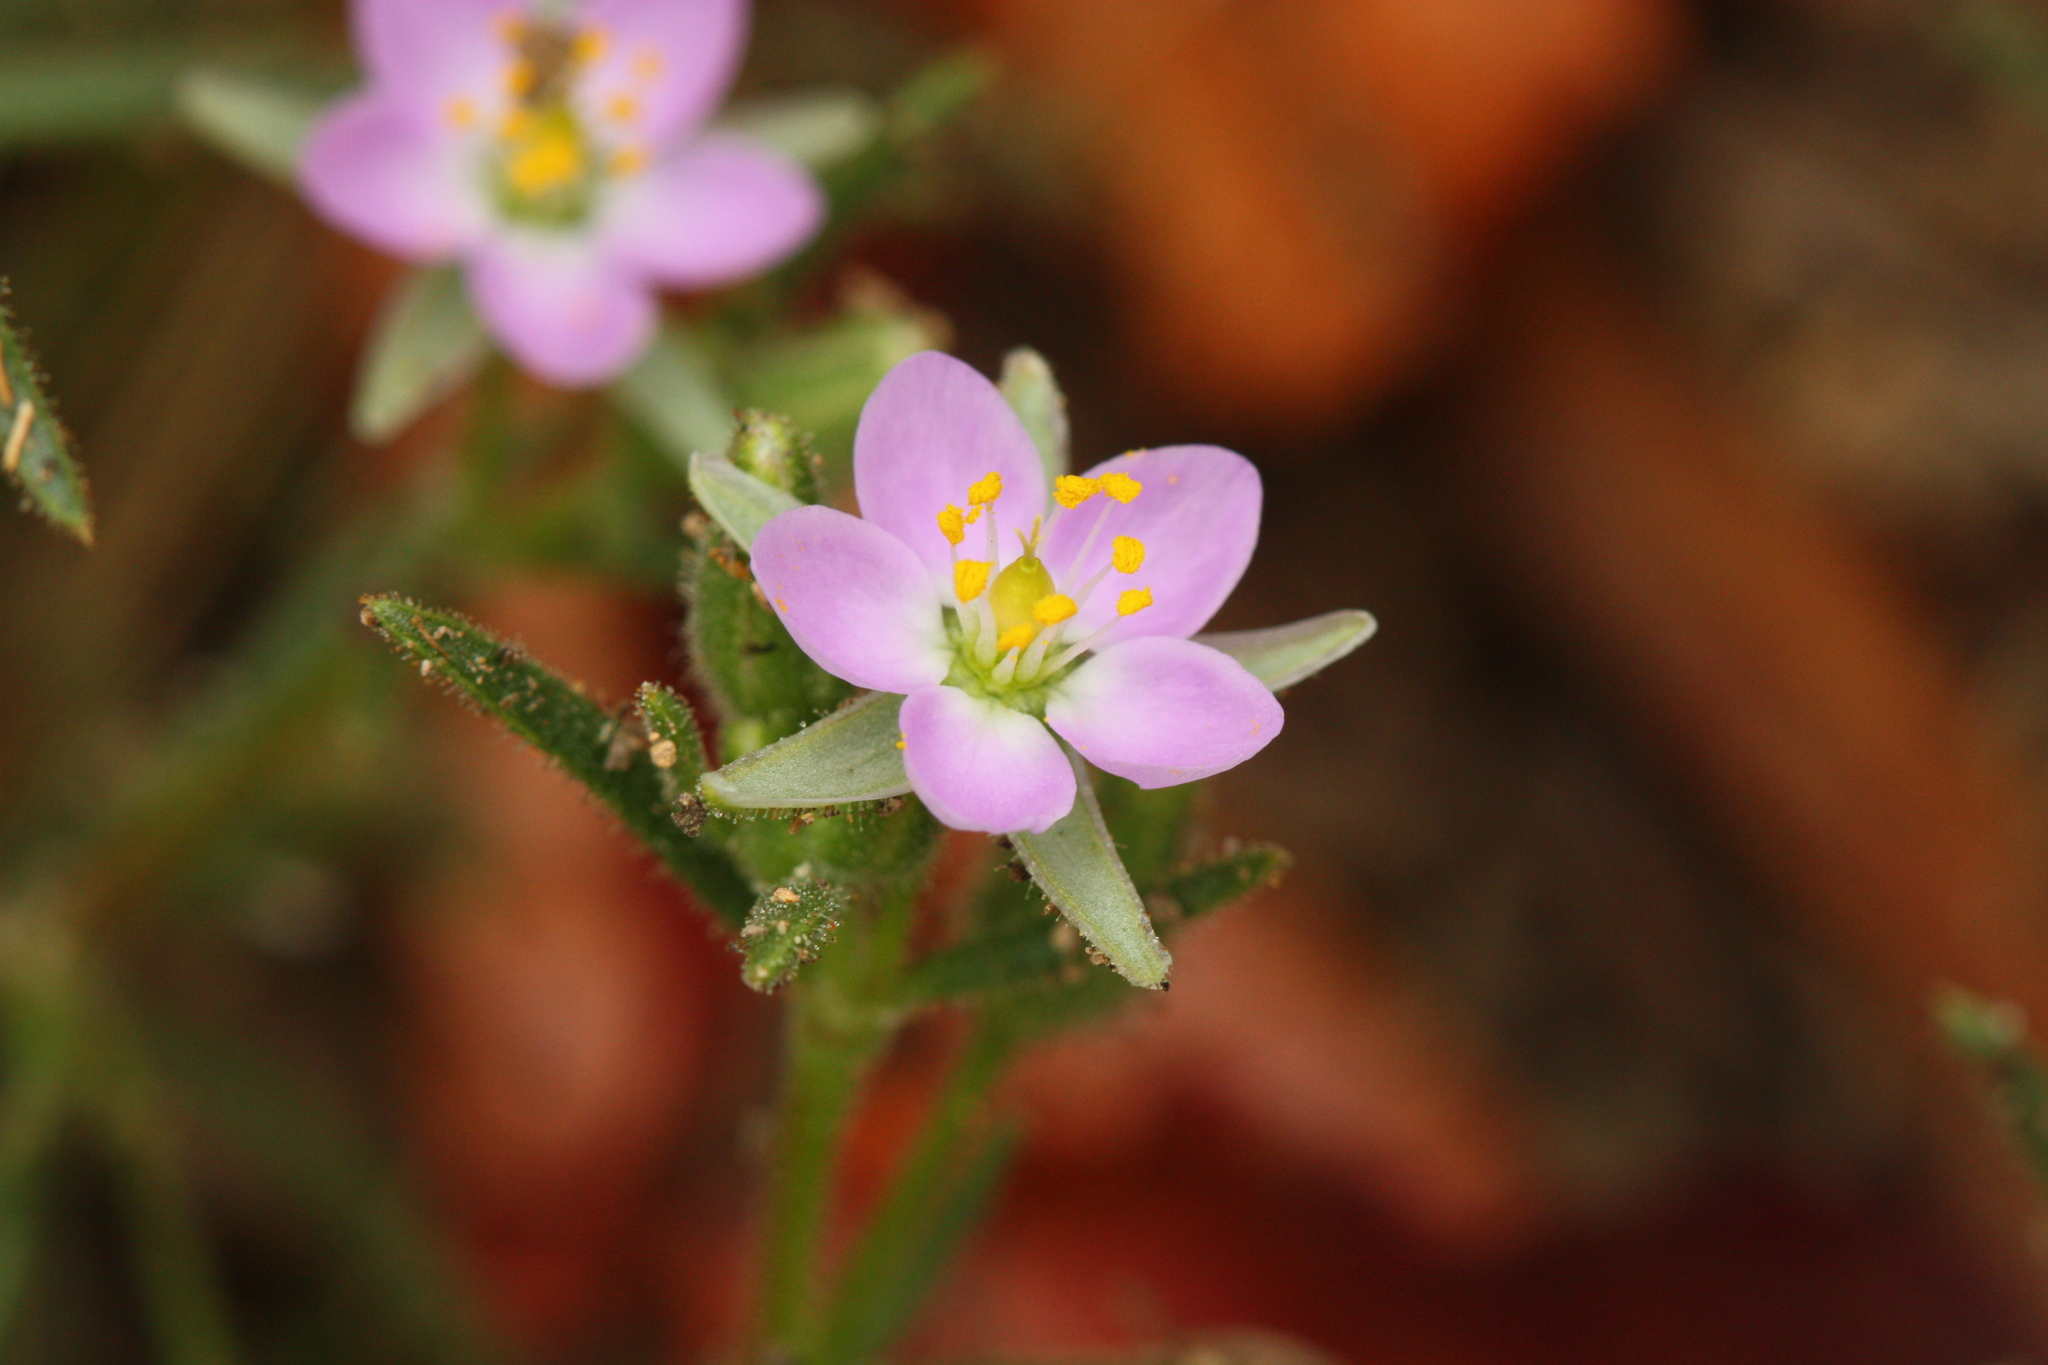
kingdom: Plantae
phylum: Tracheophyta
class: Magnoliopsida
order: Caryophyllales
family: Caryophyllaceae
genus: Spergularia
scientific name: Spergularia macrotheca
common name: Beach sand-spurrey
